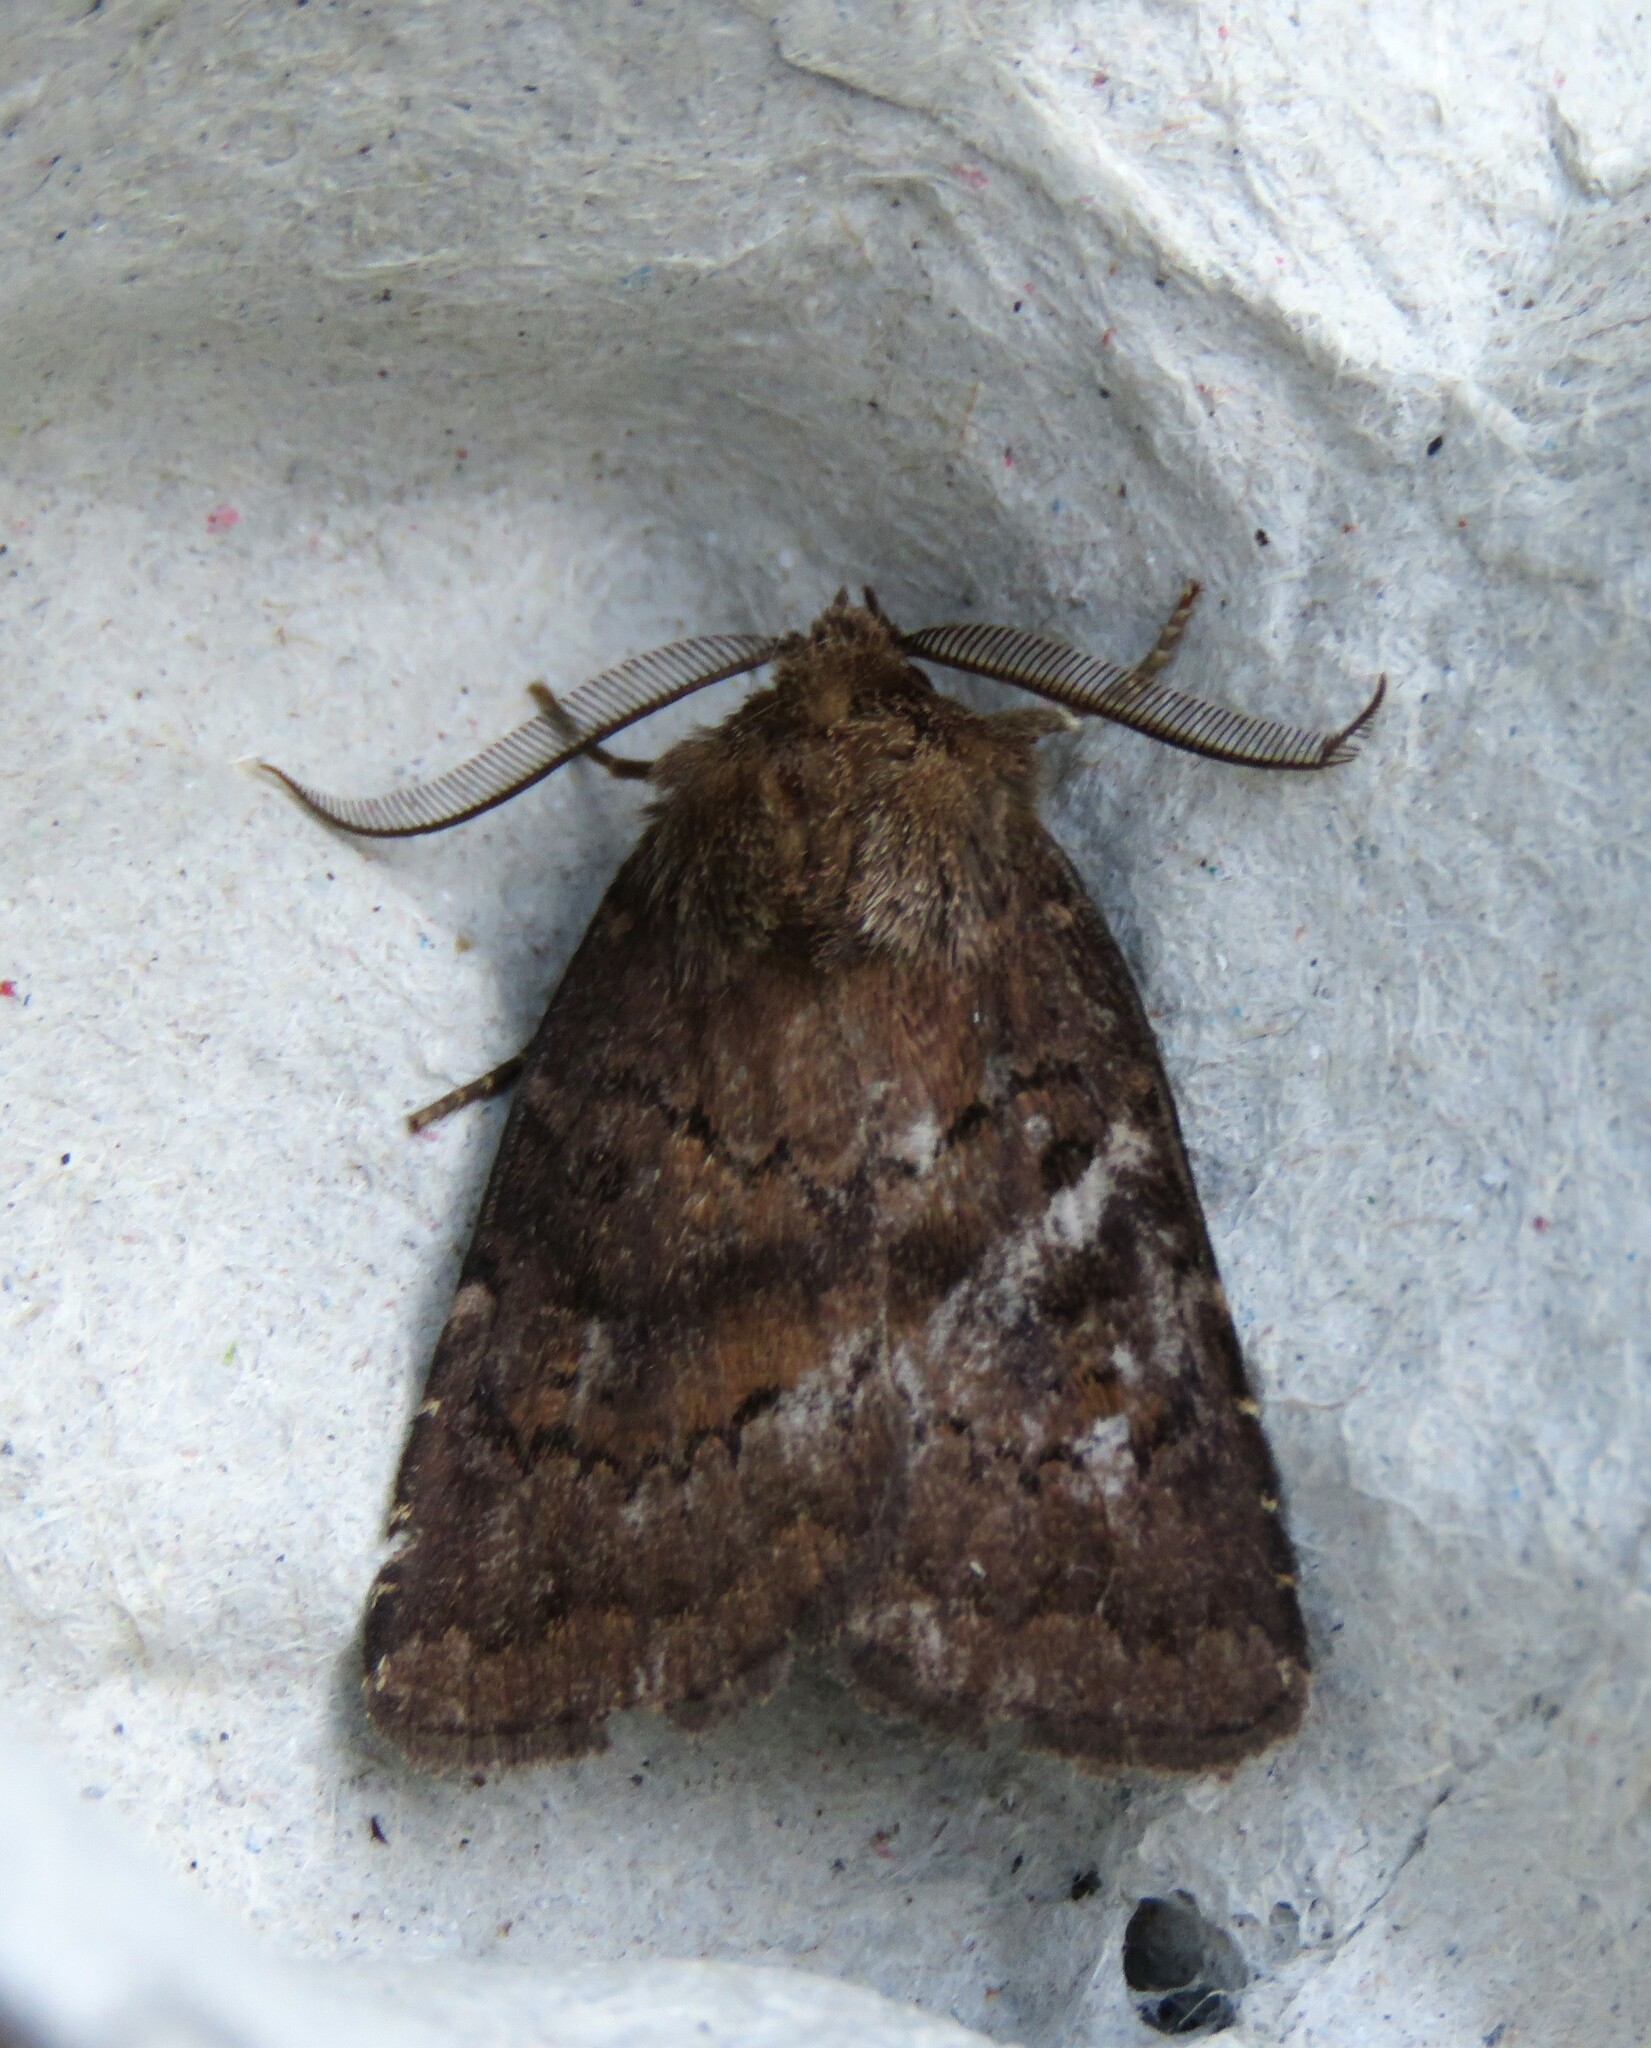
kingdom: Animalia
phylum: Arthropoda
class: Insecta
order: Lepidoptera
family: Noctuidae
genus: Charanyca
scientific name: Charanyca ferruginea
